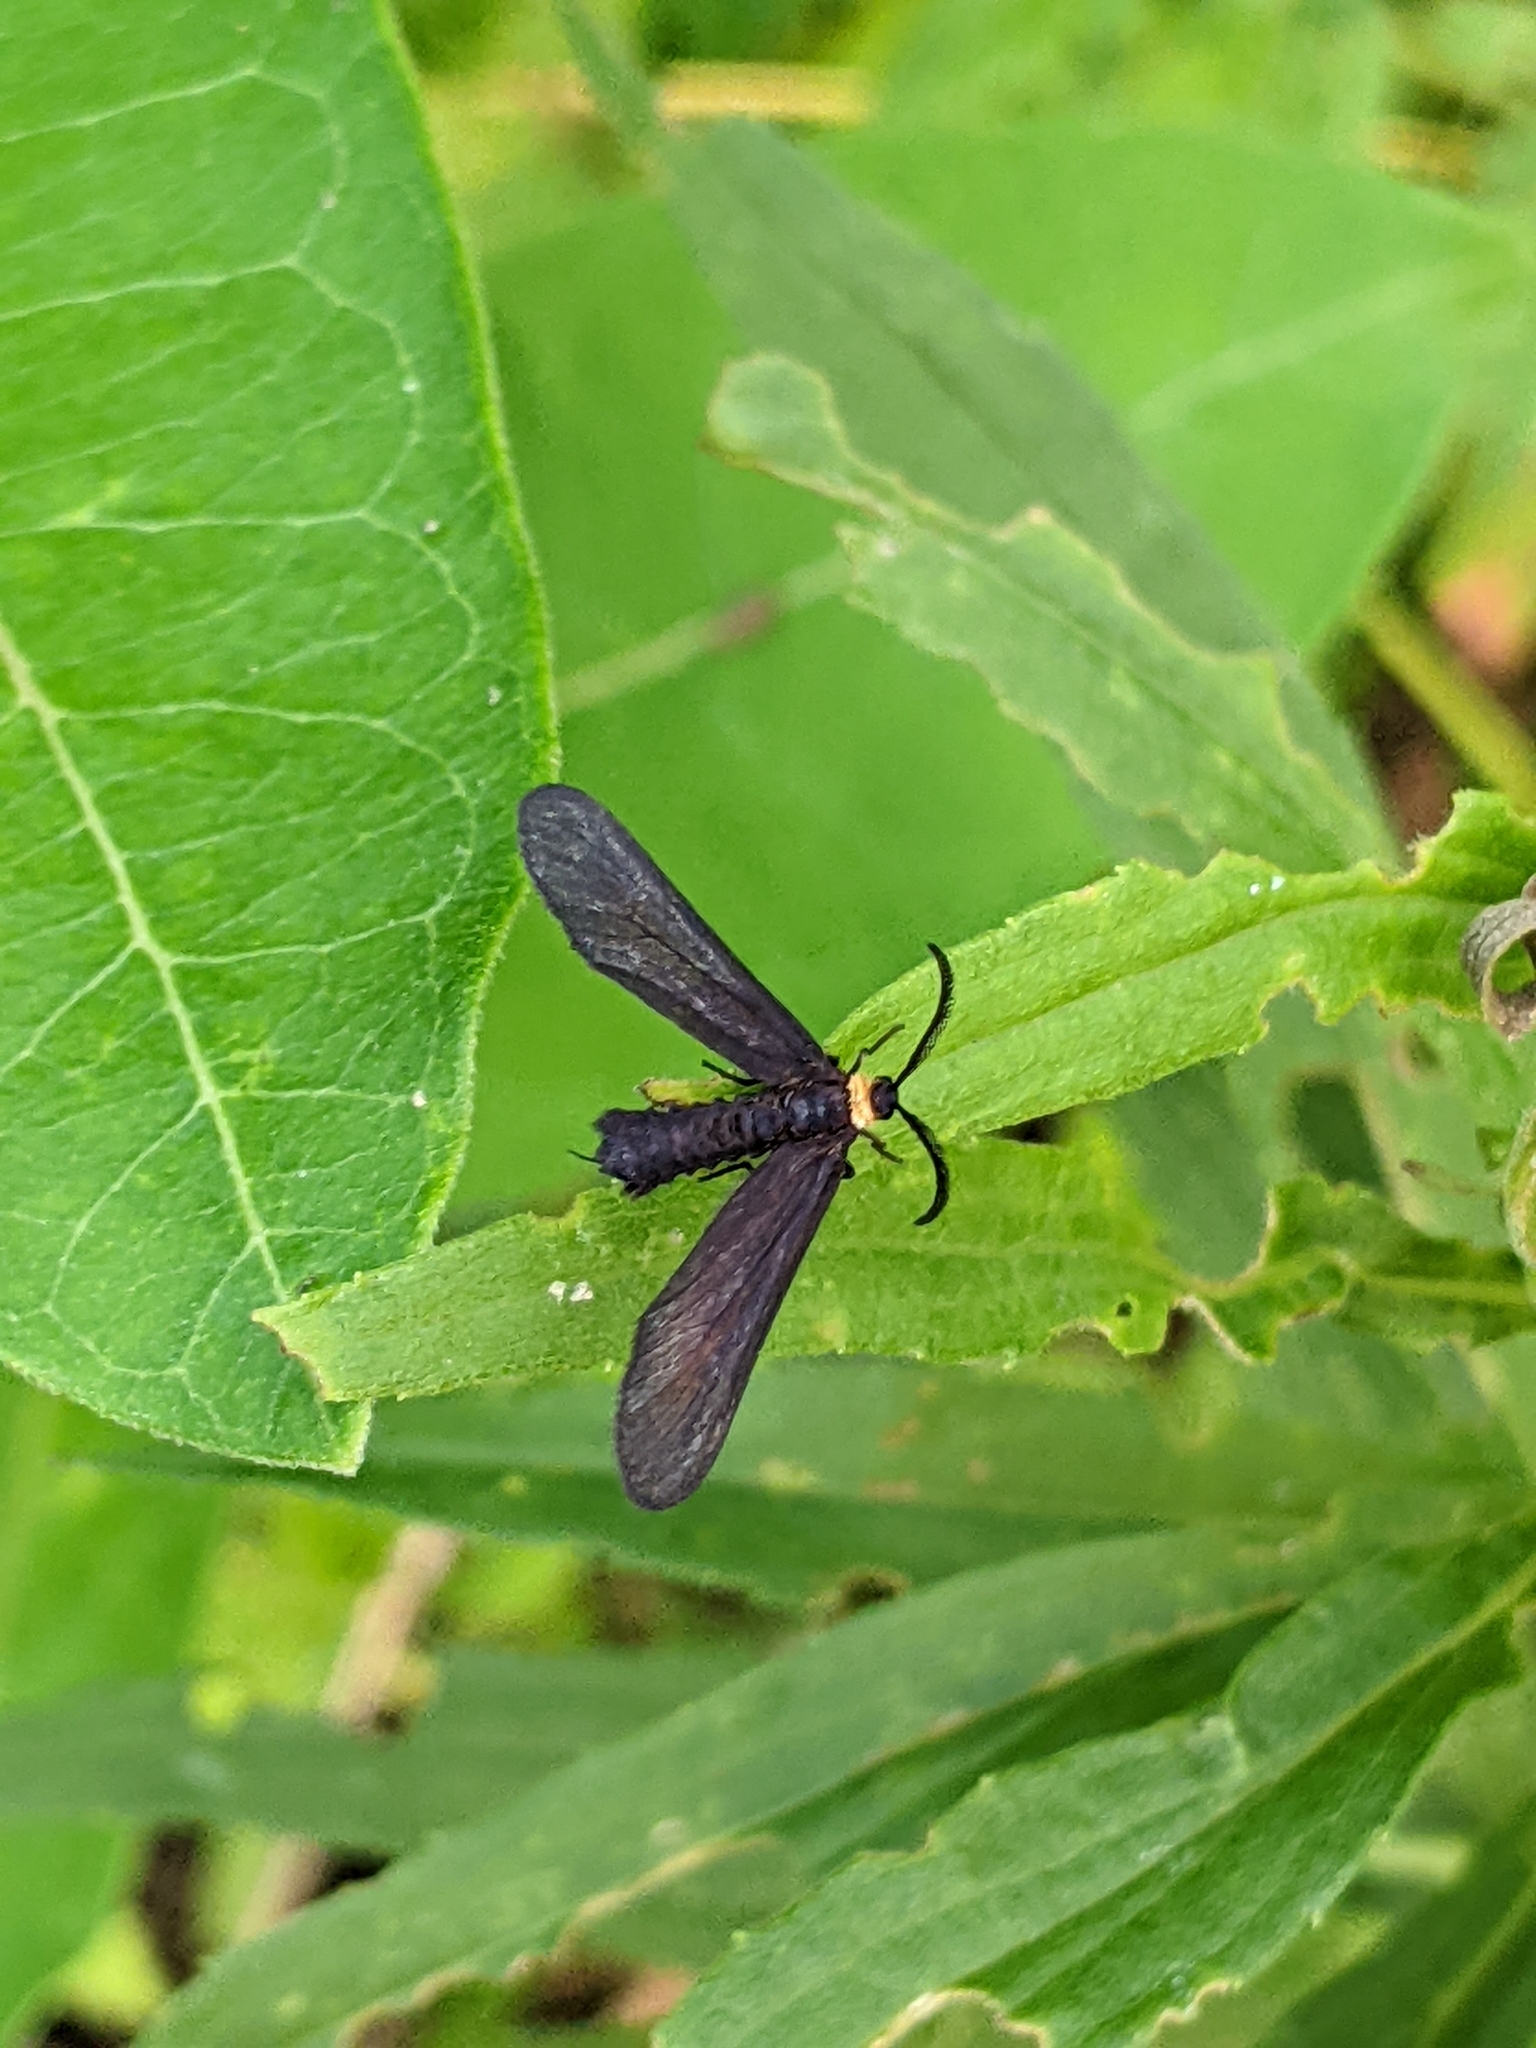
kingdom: Animalia
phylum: Arthropoda
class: Insecta
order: Lepidoptera
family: Zygaenidae
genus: Harrisina
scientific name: Harrisina americana
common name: Grapeleaf skeletonizer moth
